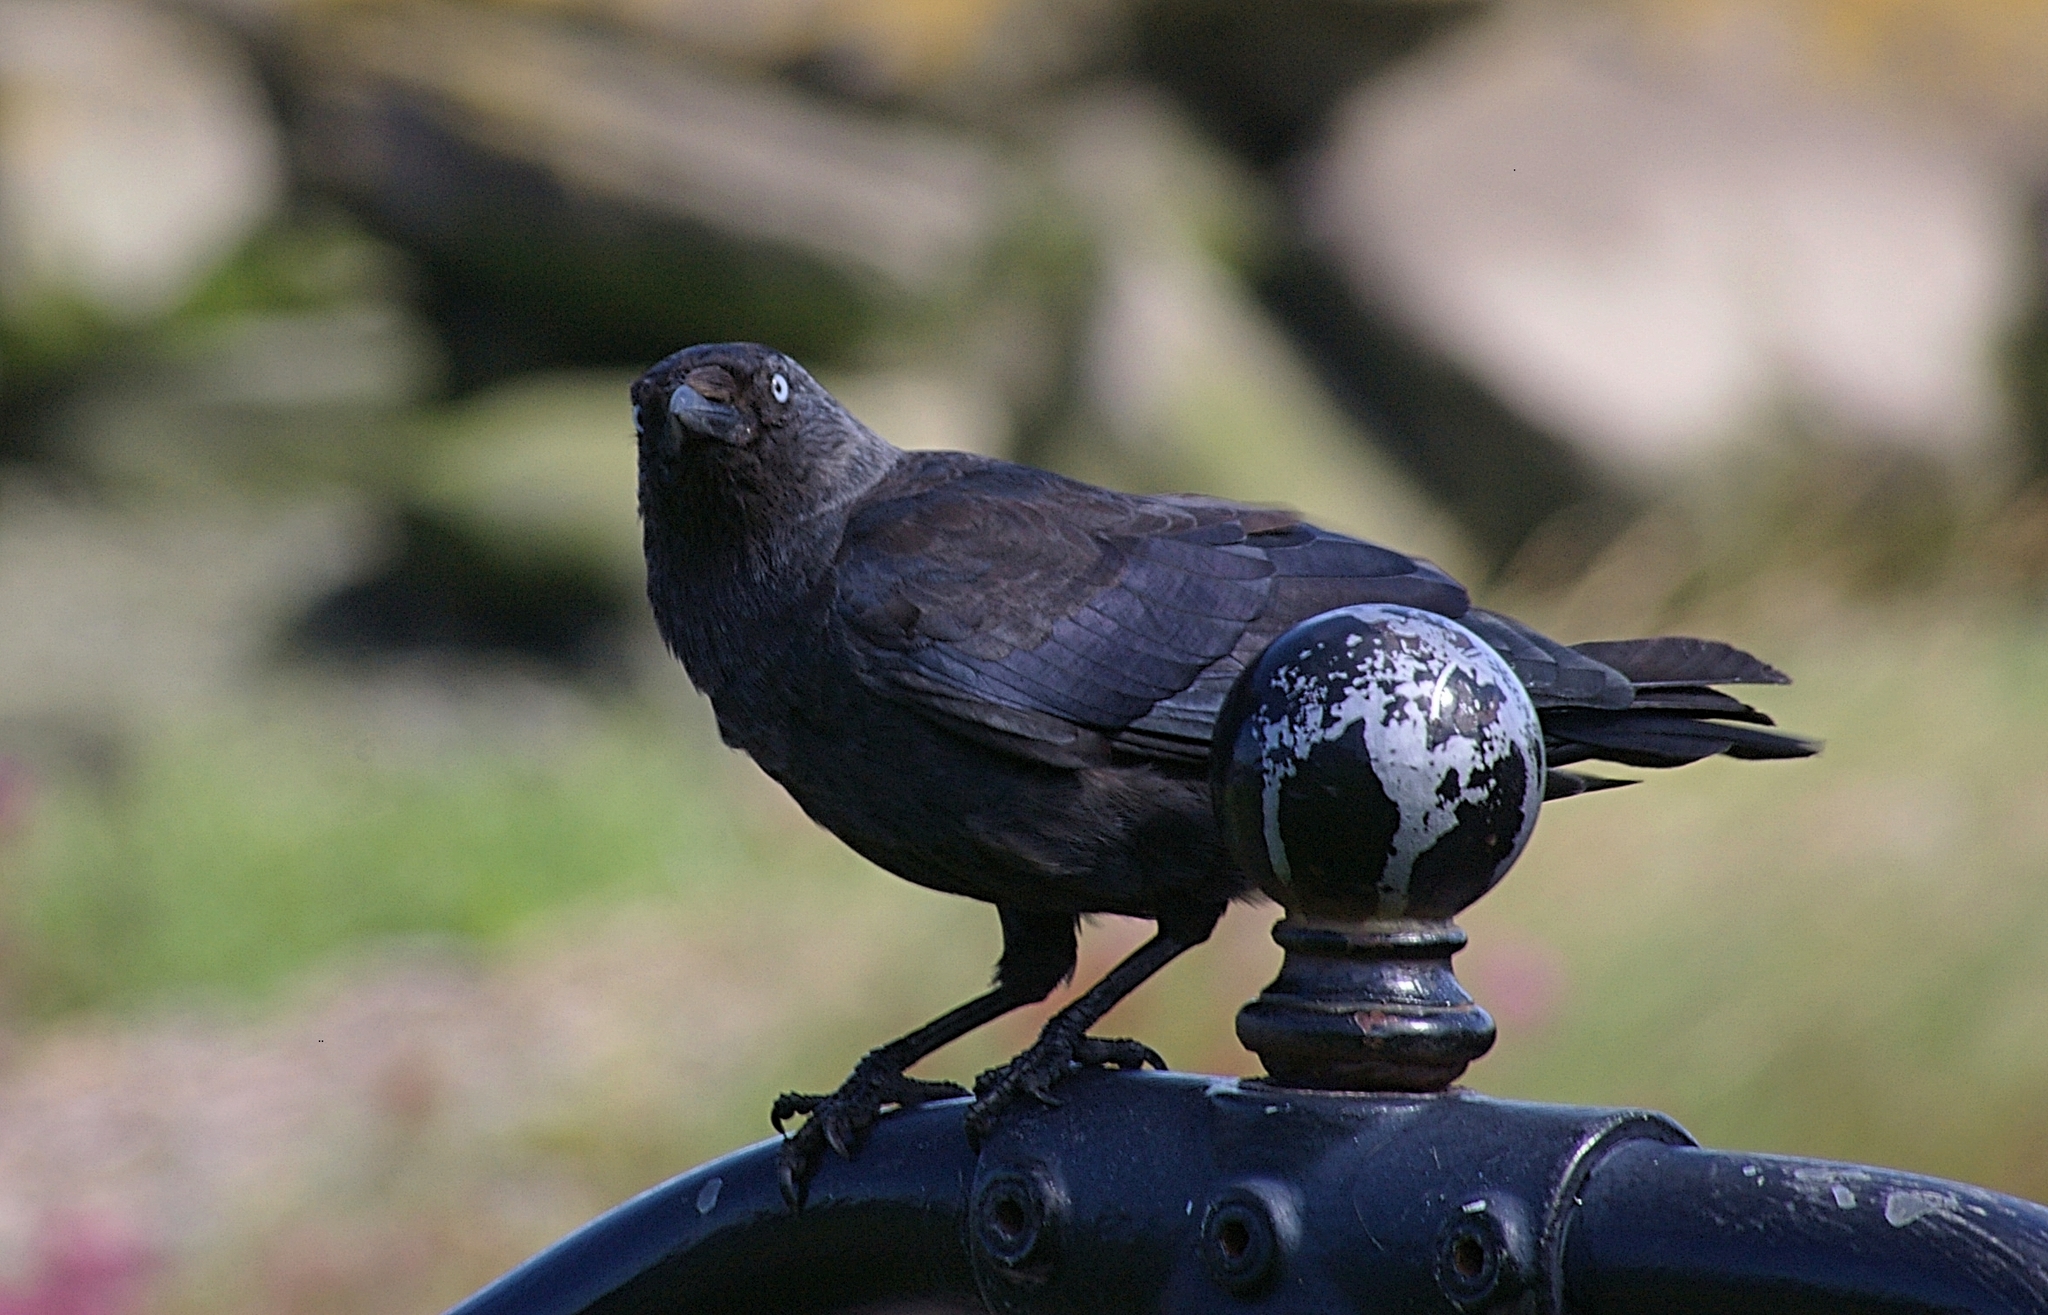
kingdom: Animalia
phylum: Chordata
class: Aves
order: Passeriformes
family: Corvidae
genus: Coloeus
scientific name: Coloeus monedula
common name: Western jackdaw
